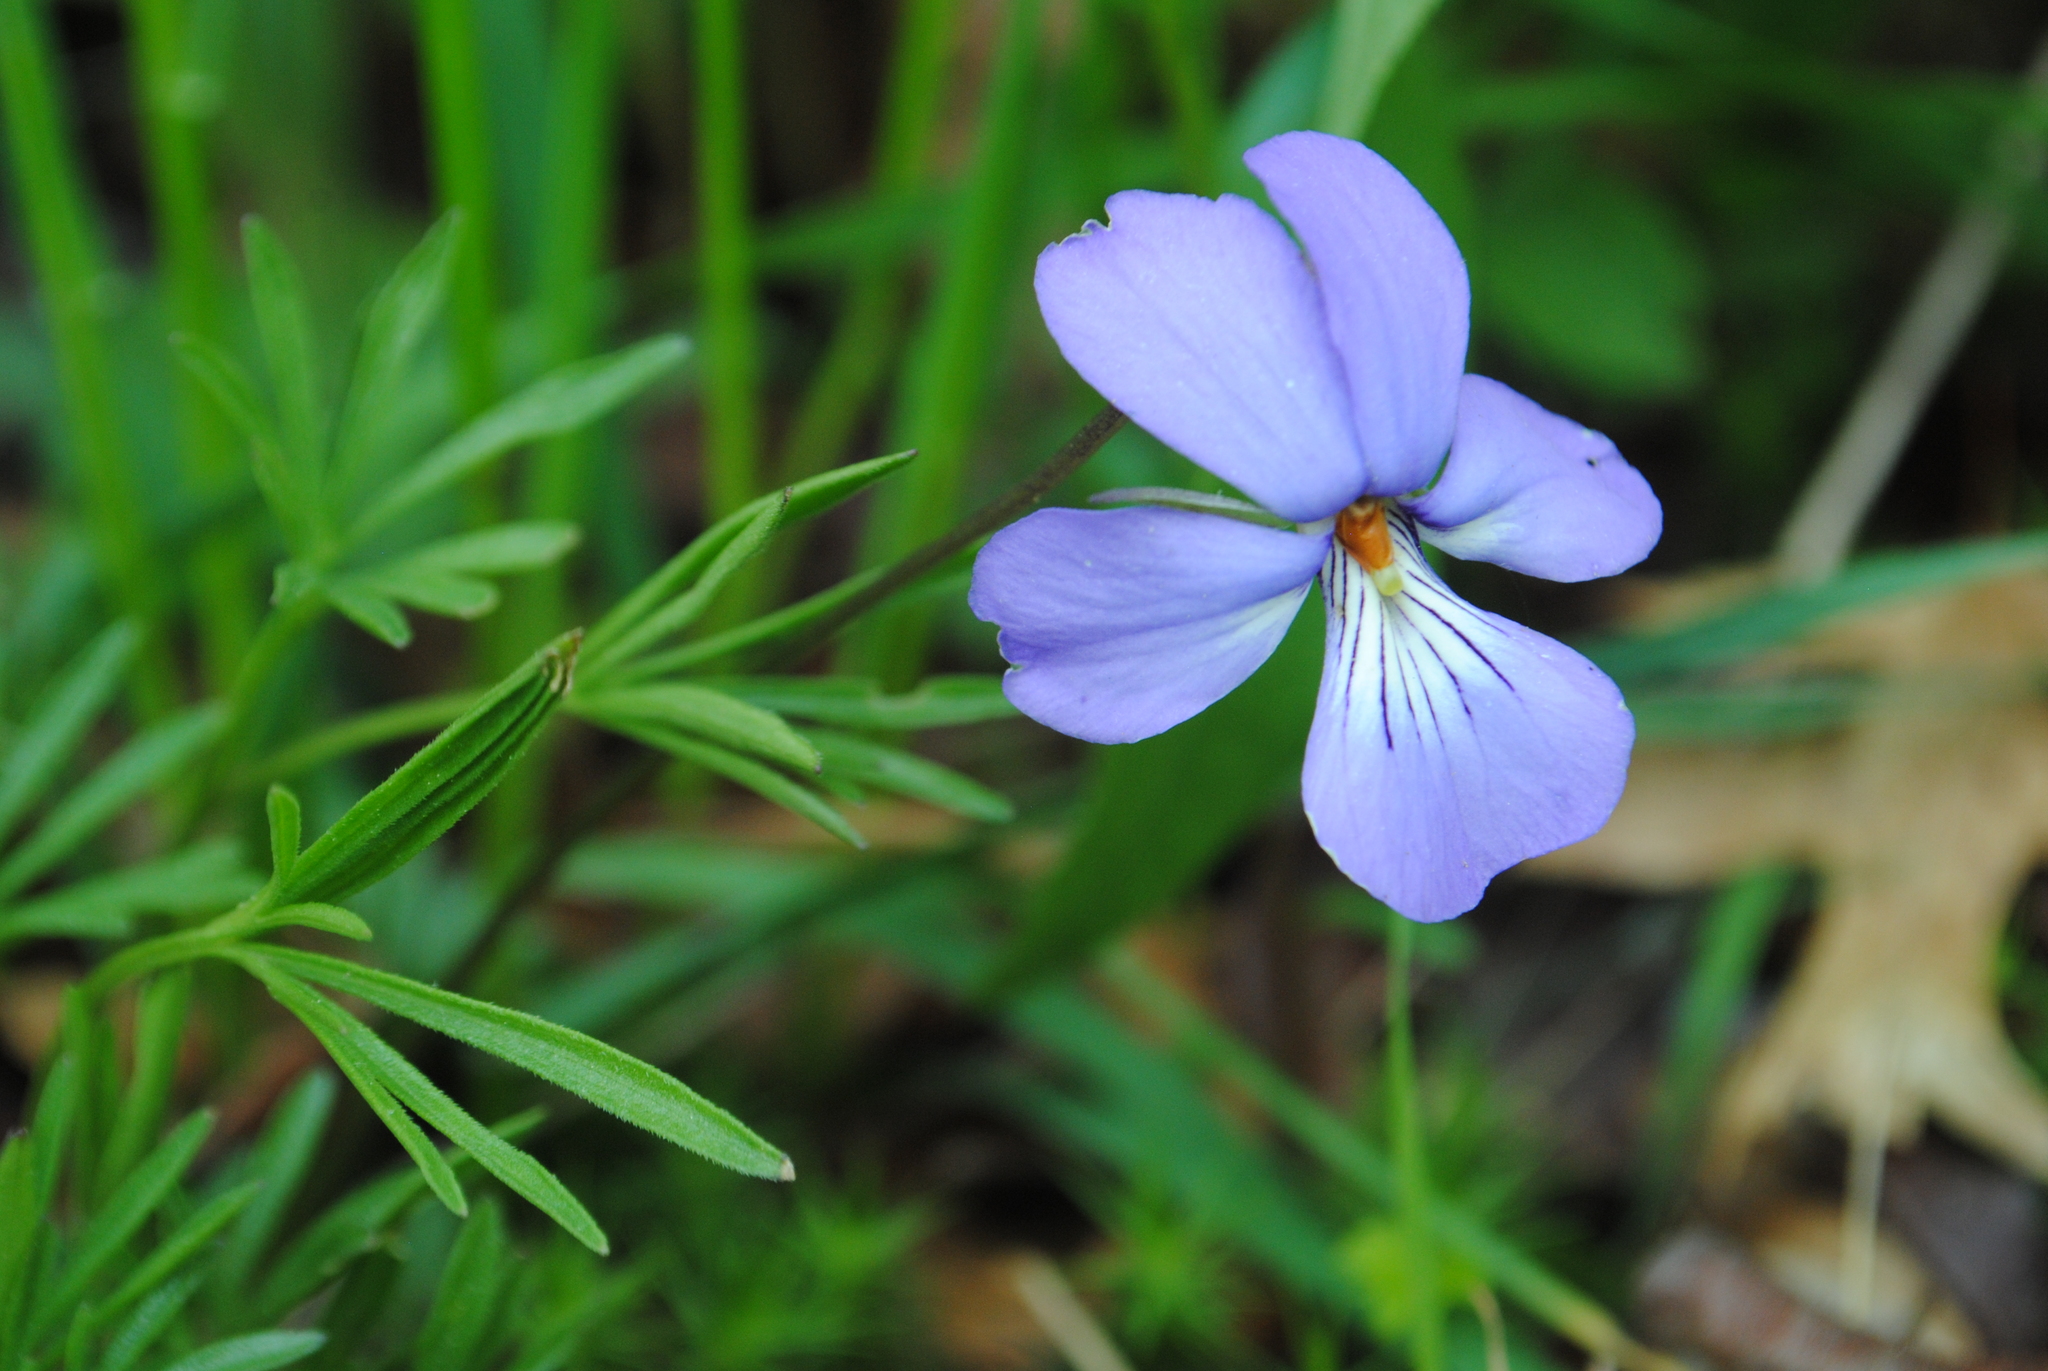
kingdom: Plantae
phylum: Tracheophyta
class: Magnoliopsida
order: Malpighiales
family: Violaceae
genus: Viola
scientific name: Viola pedata
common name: Pansy violet
